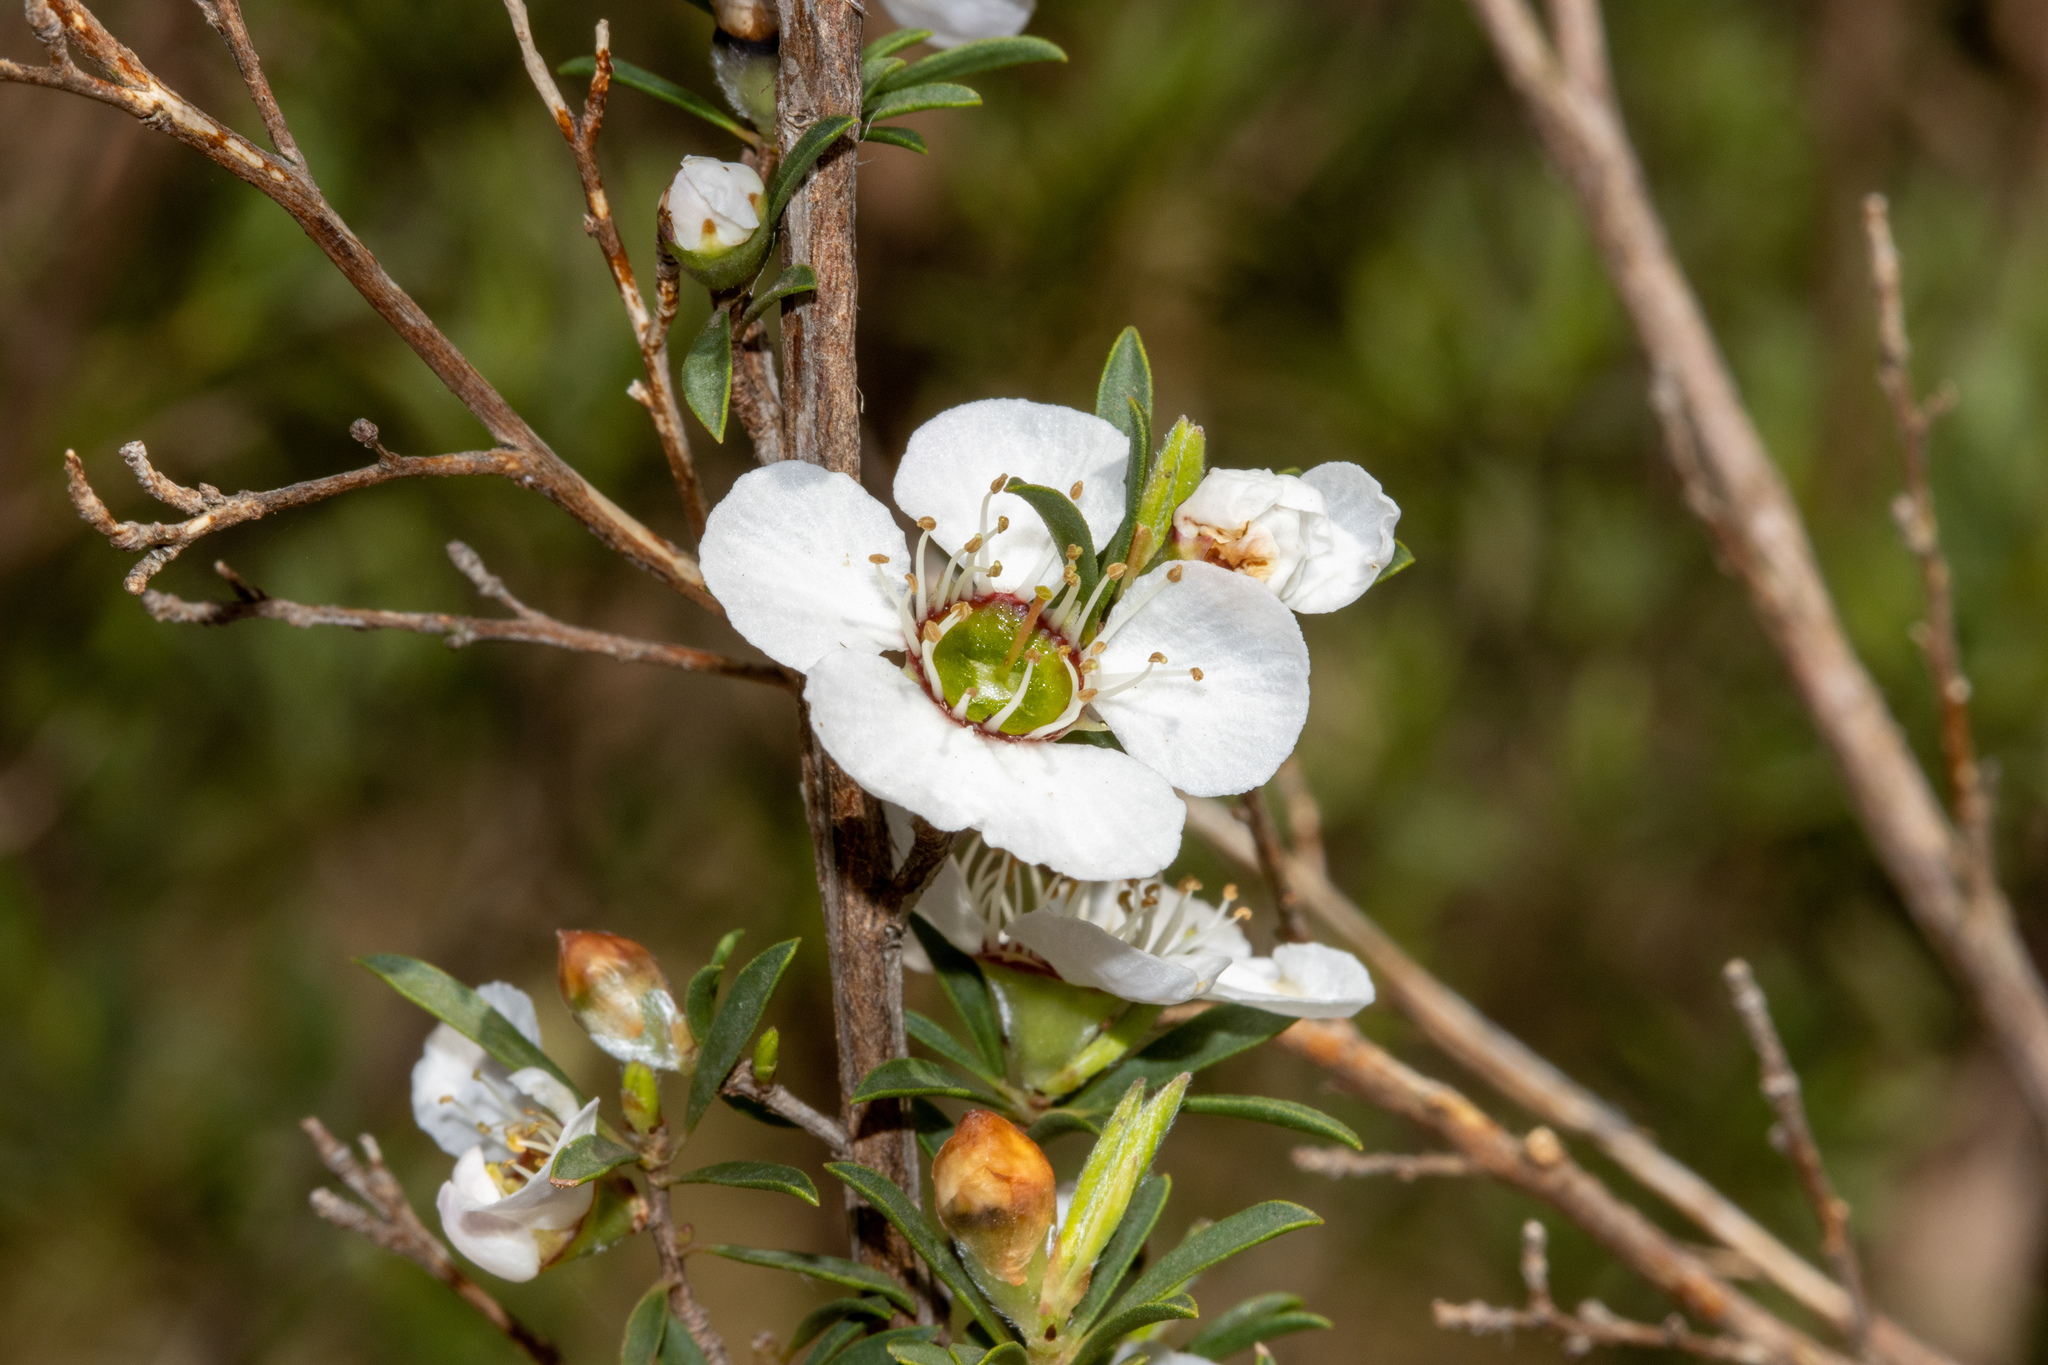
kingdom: Plantae
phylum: Tracheophyta
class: Magnoliopsida
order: Myrtales
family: Myrtaceae
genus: Leptospermum
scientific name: Leptospermum myrsinoides
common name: Heath teatree
